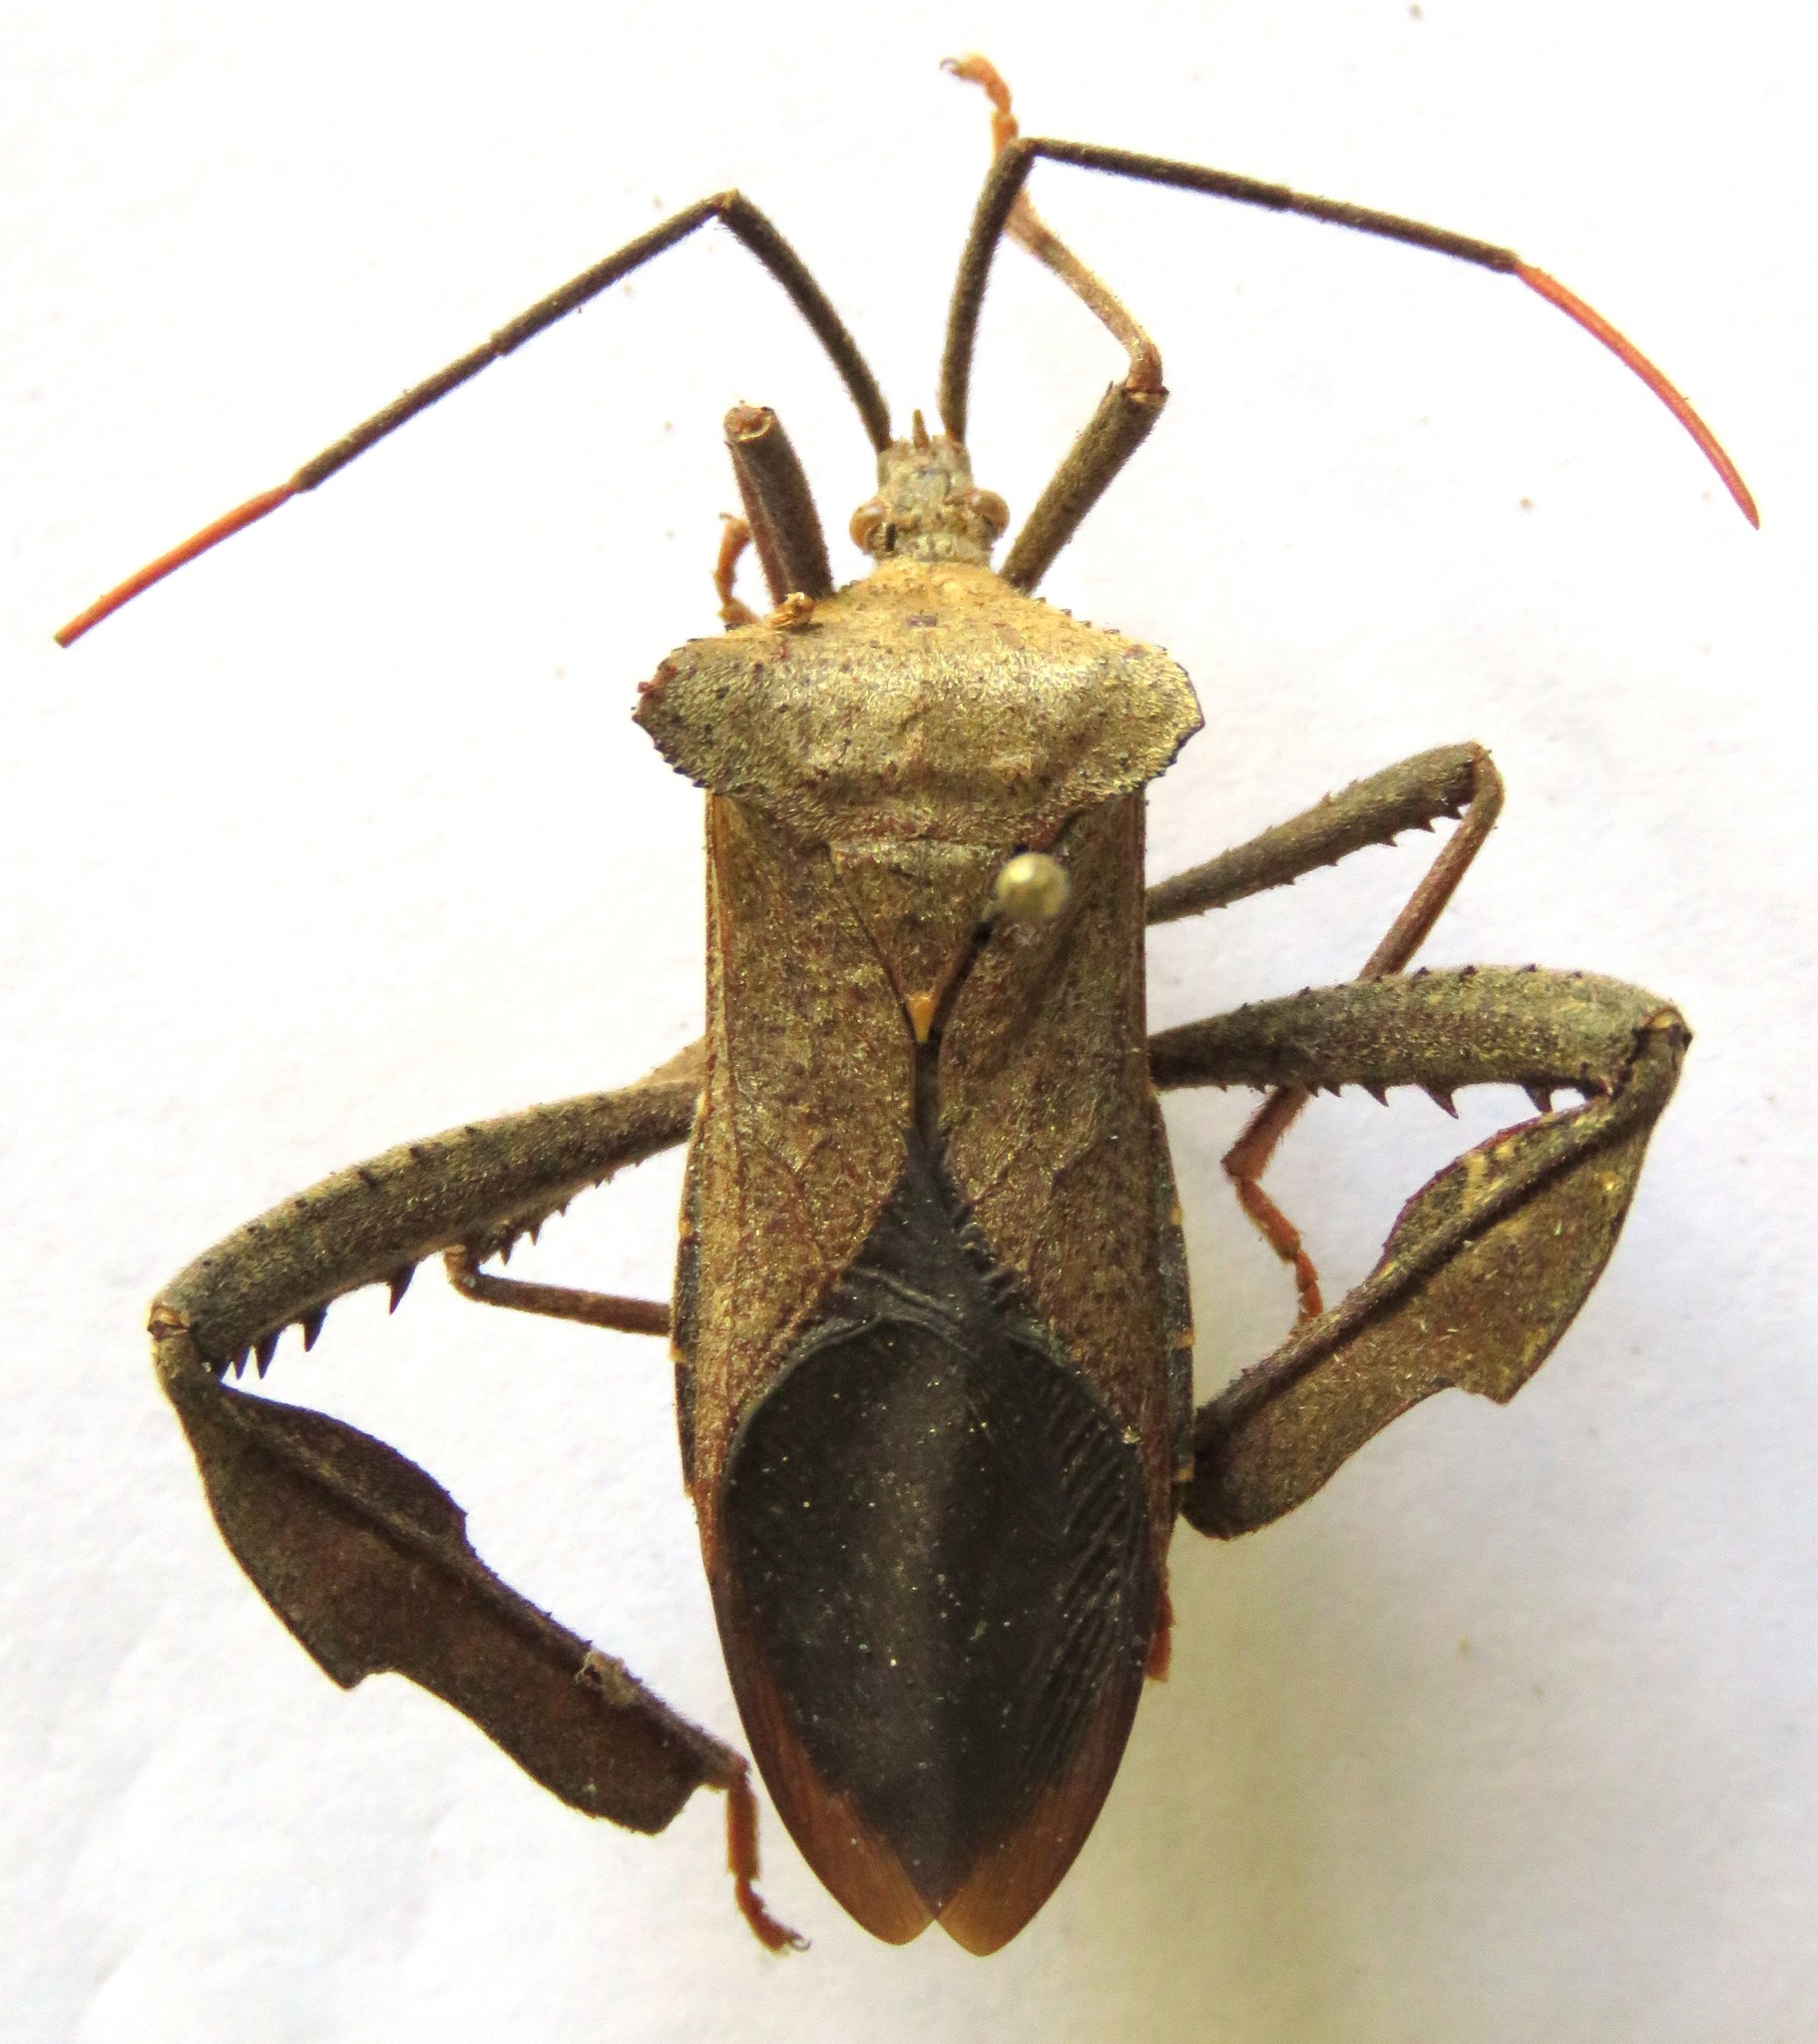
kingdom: Animalia
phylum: Arthropoda
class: Insecta
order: Hemiptera
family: Coreidae
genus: Acanthocephala
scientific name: Acanthocephala alata
